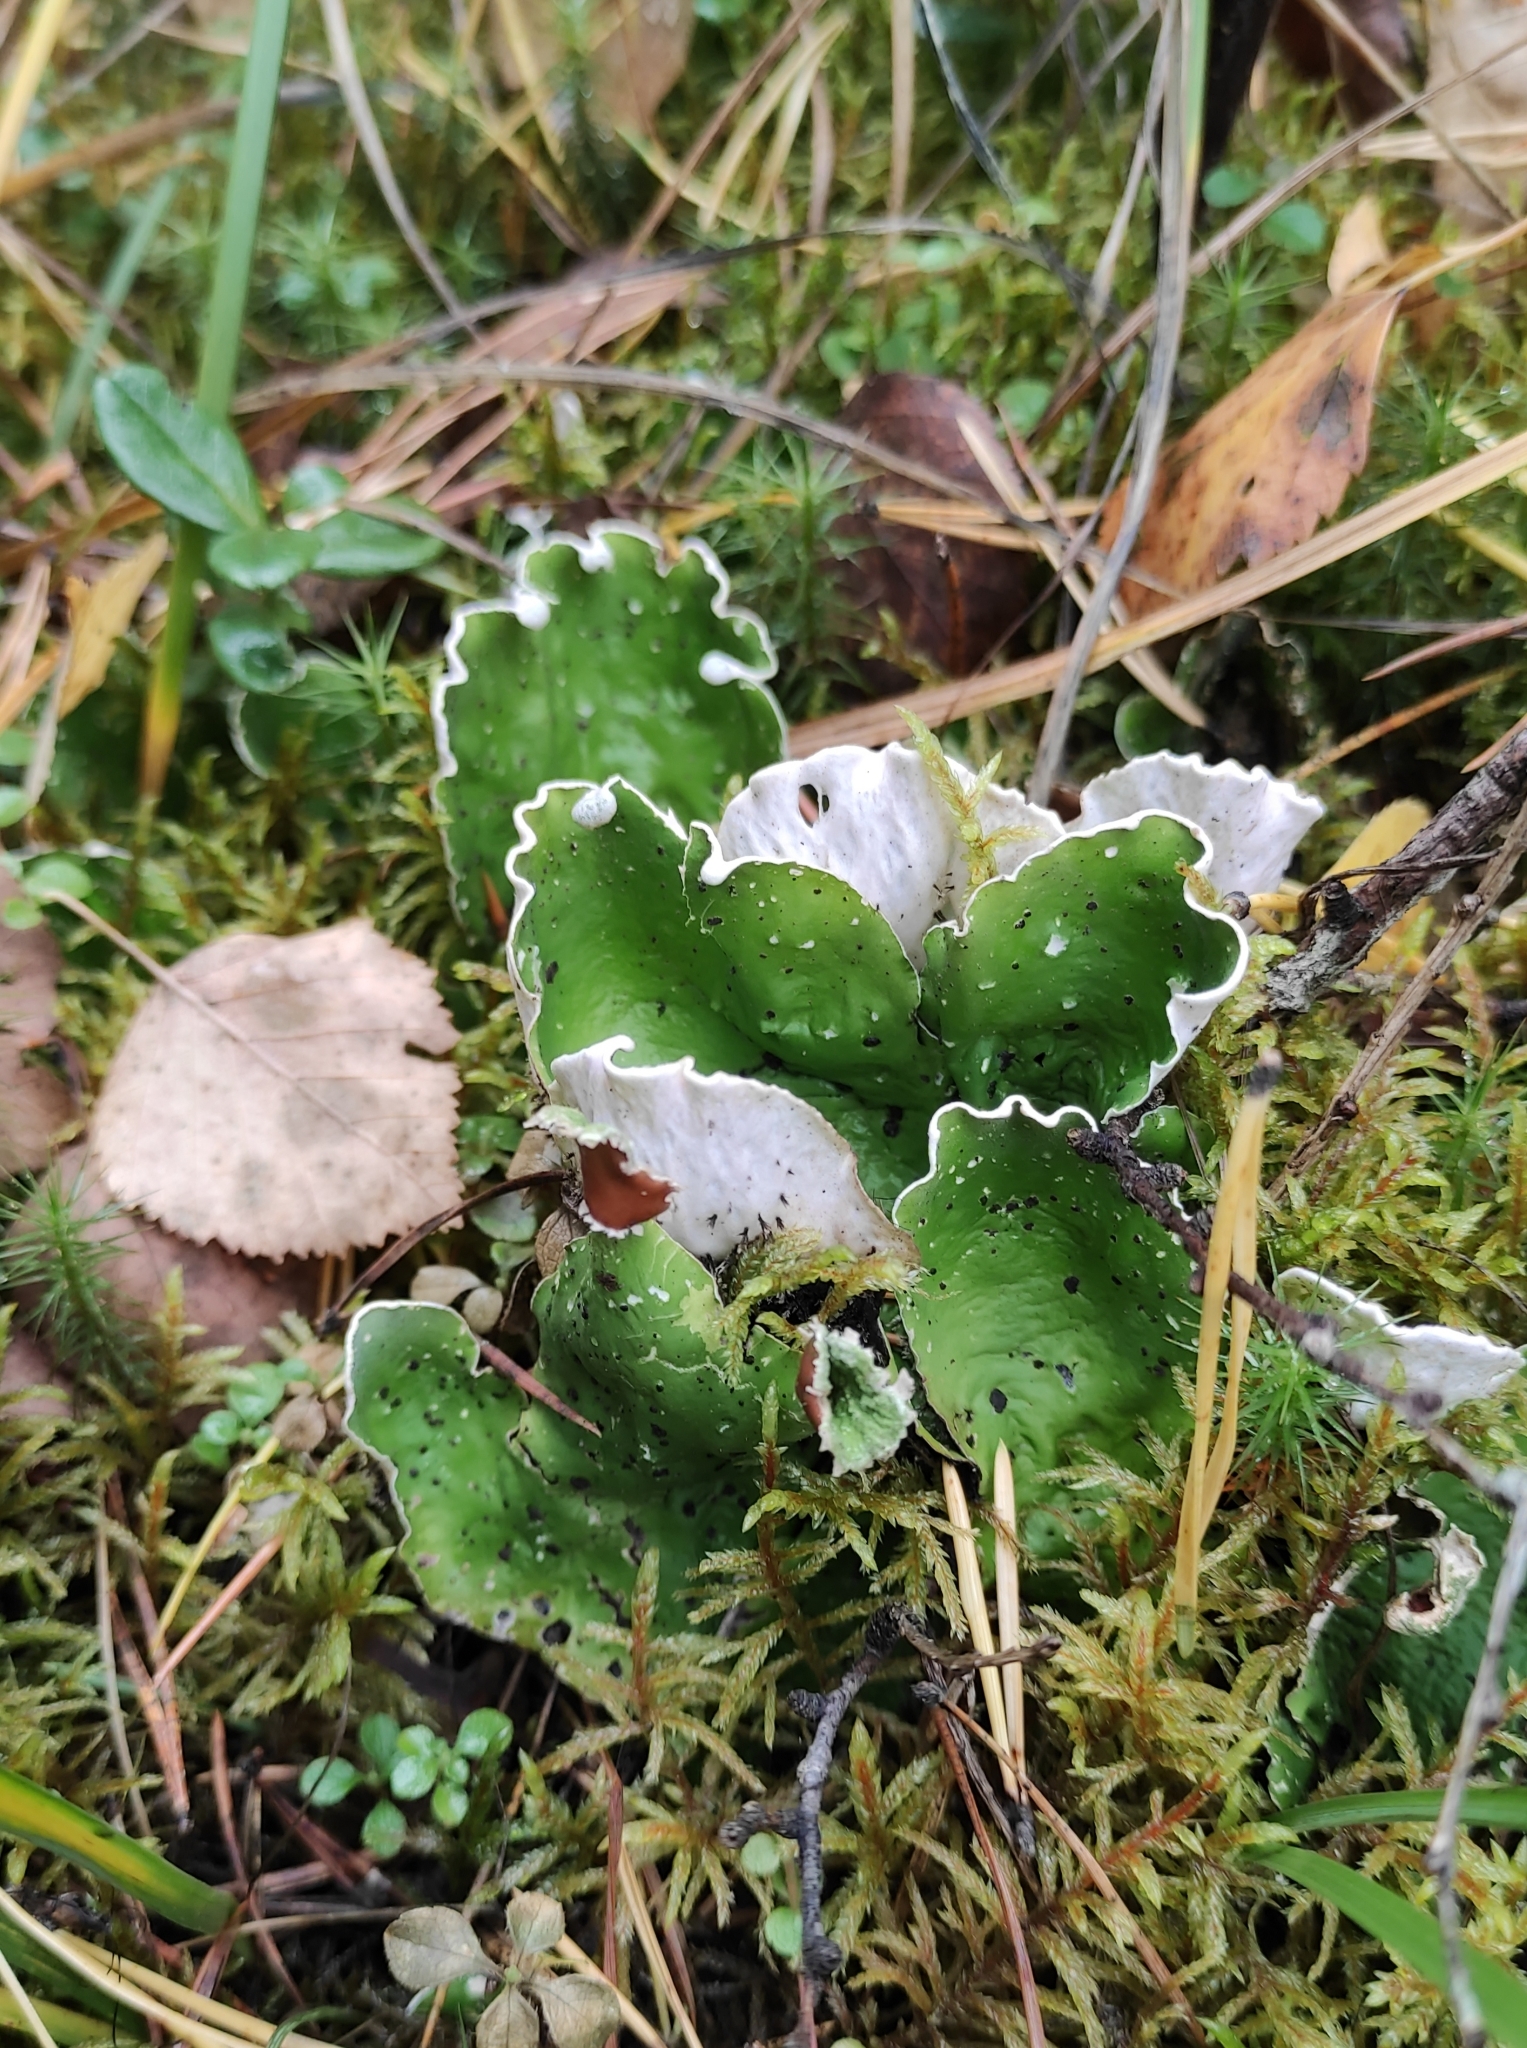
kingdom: Fungi
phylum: Ascomycota
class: Lecanoromycetes
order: Peltigerales
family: Peltigeraceae
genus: Peltigera
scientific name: Peltigera aphthosa
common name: Common freckle pelt lichen
